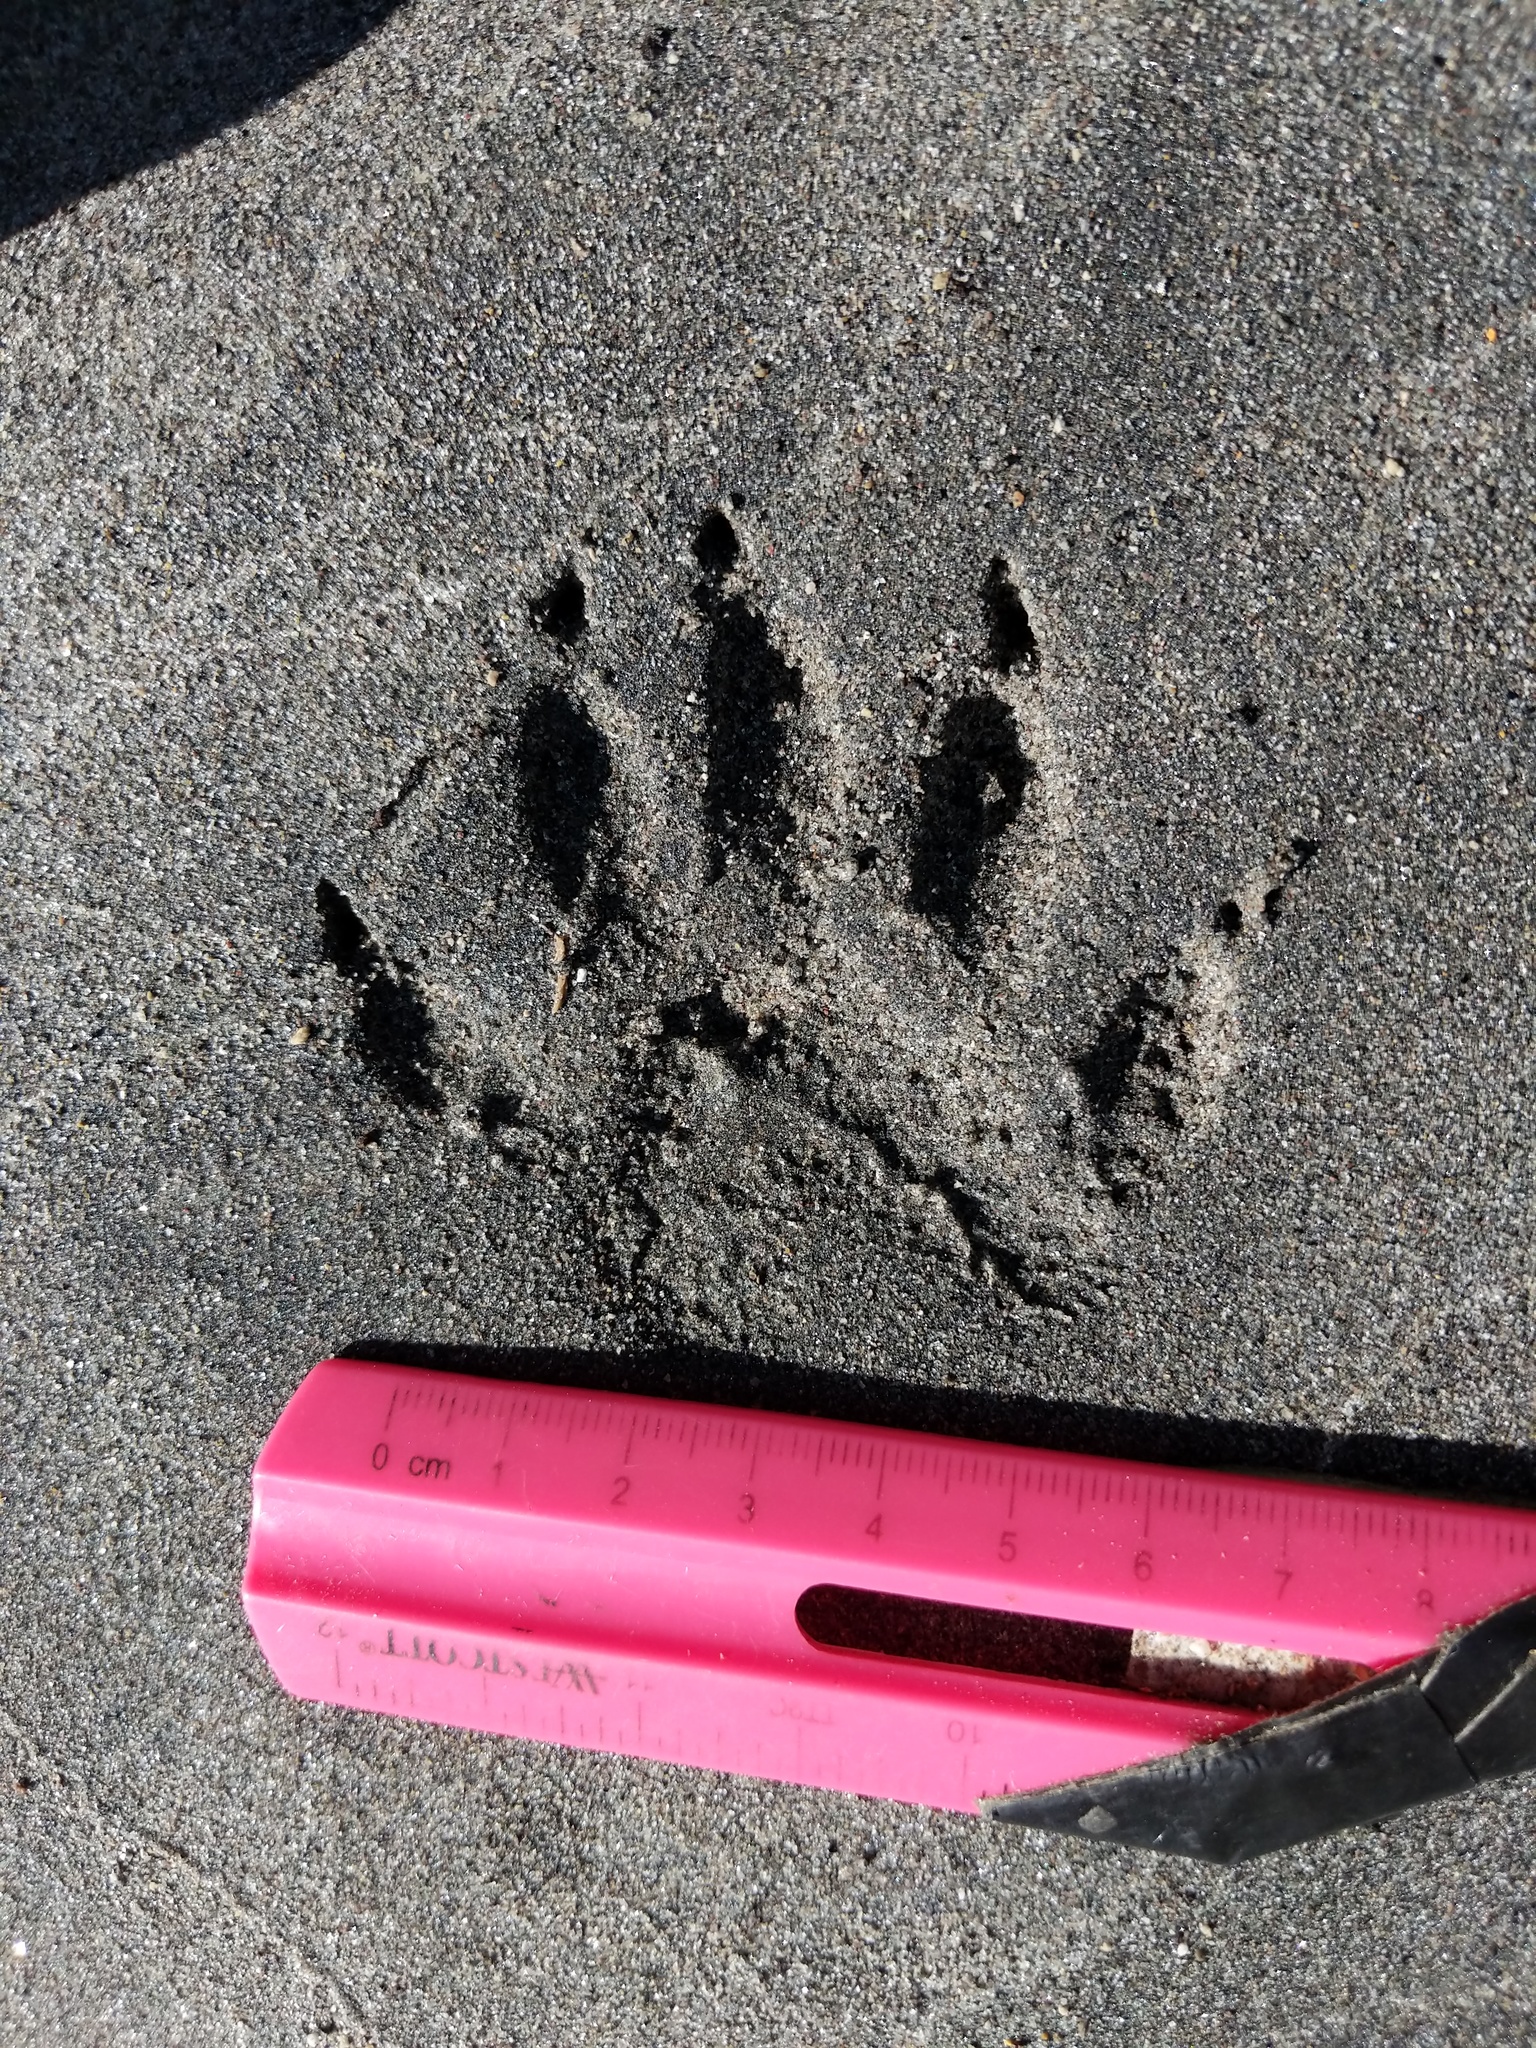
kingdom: Animalia
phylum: Chordata
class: Mammalia
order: Carnivora
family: Procyonidae
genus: Procyon
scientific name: Procyon lotor
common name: Raccoon
